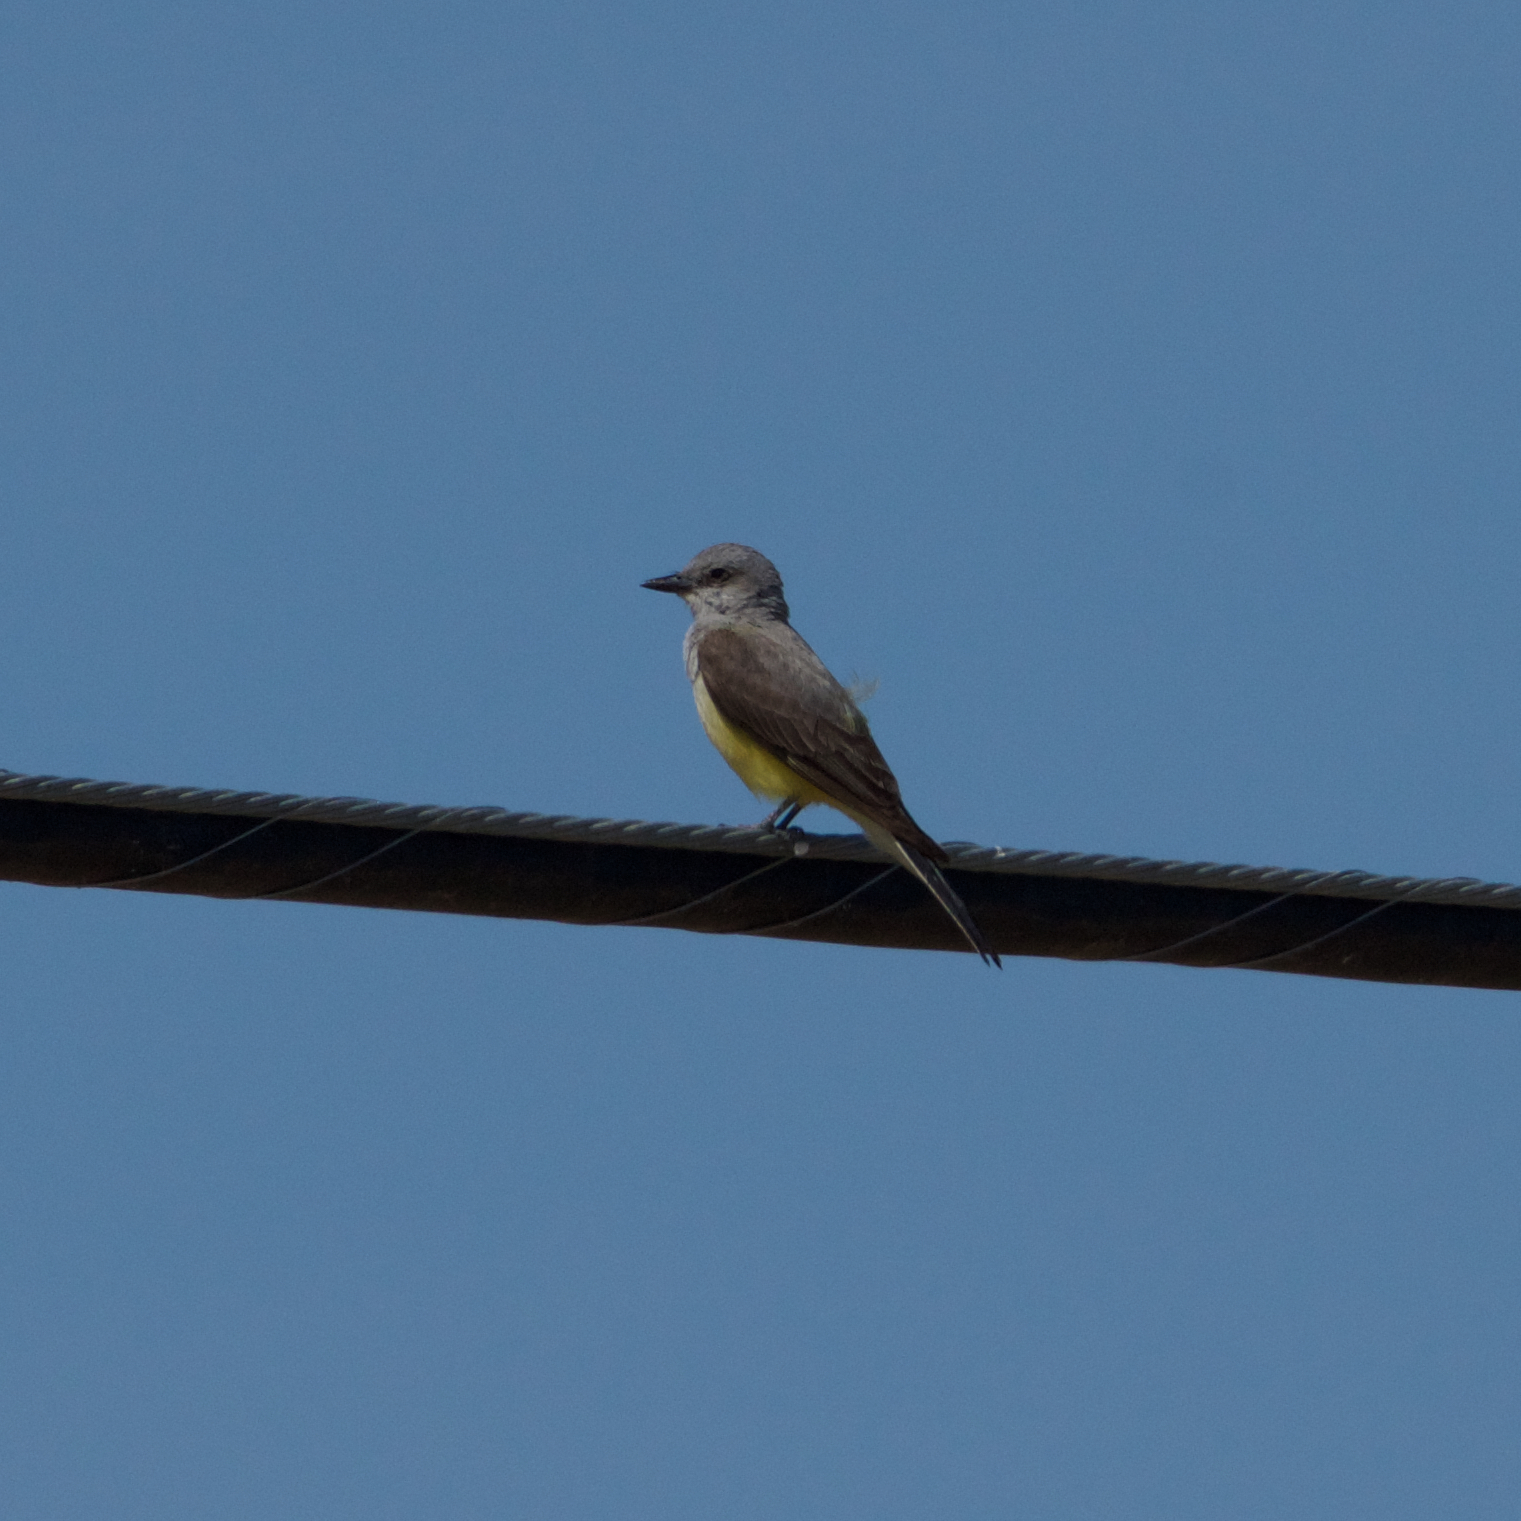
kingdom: Animalia
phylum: Chordata
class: Aves
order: Passeriformes
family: Tyrannidae
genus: Tyrannus
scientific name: Tyrannus verticalis
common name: Western kingbird
